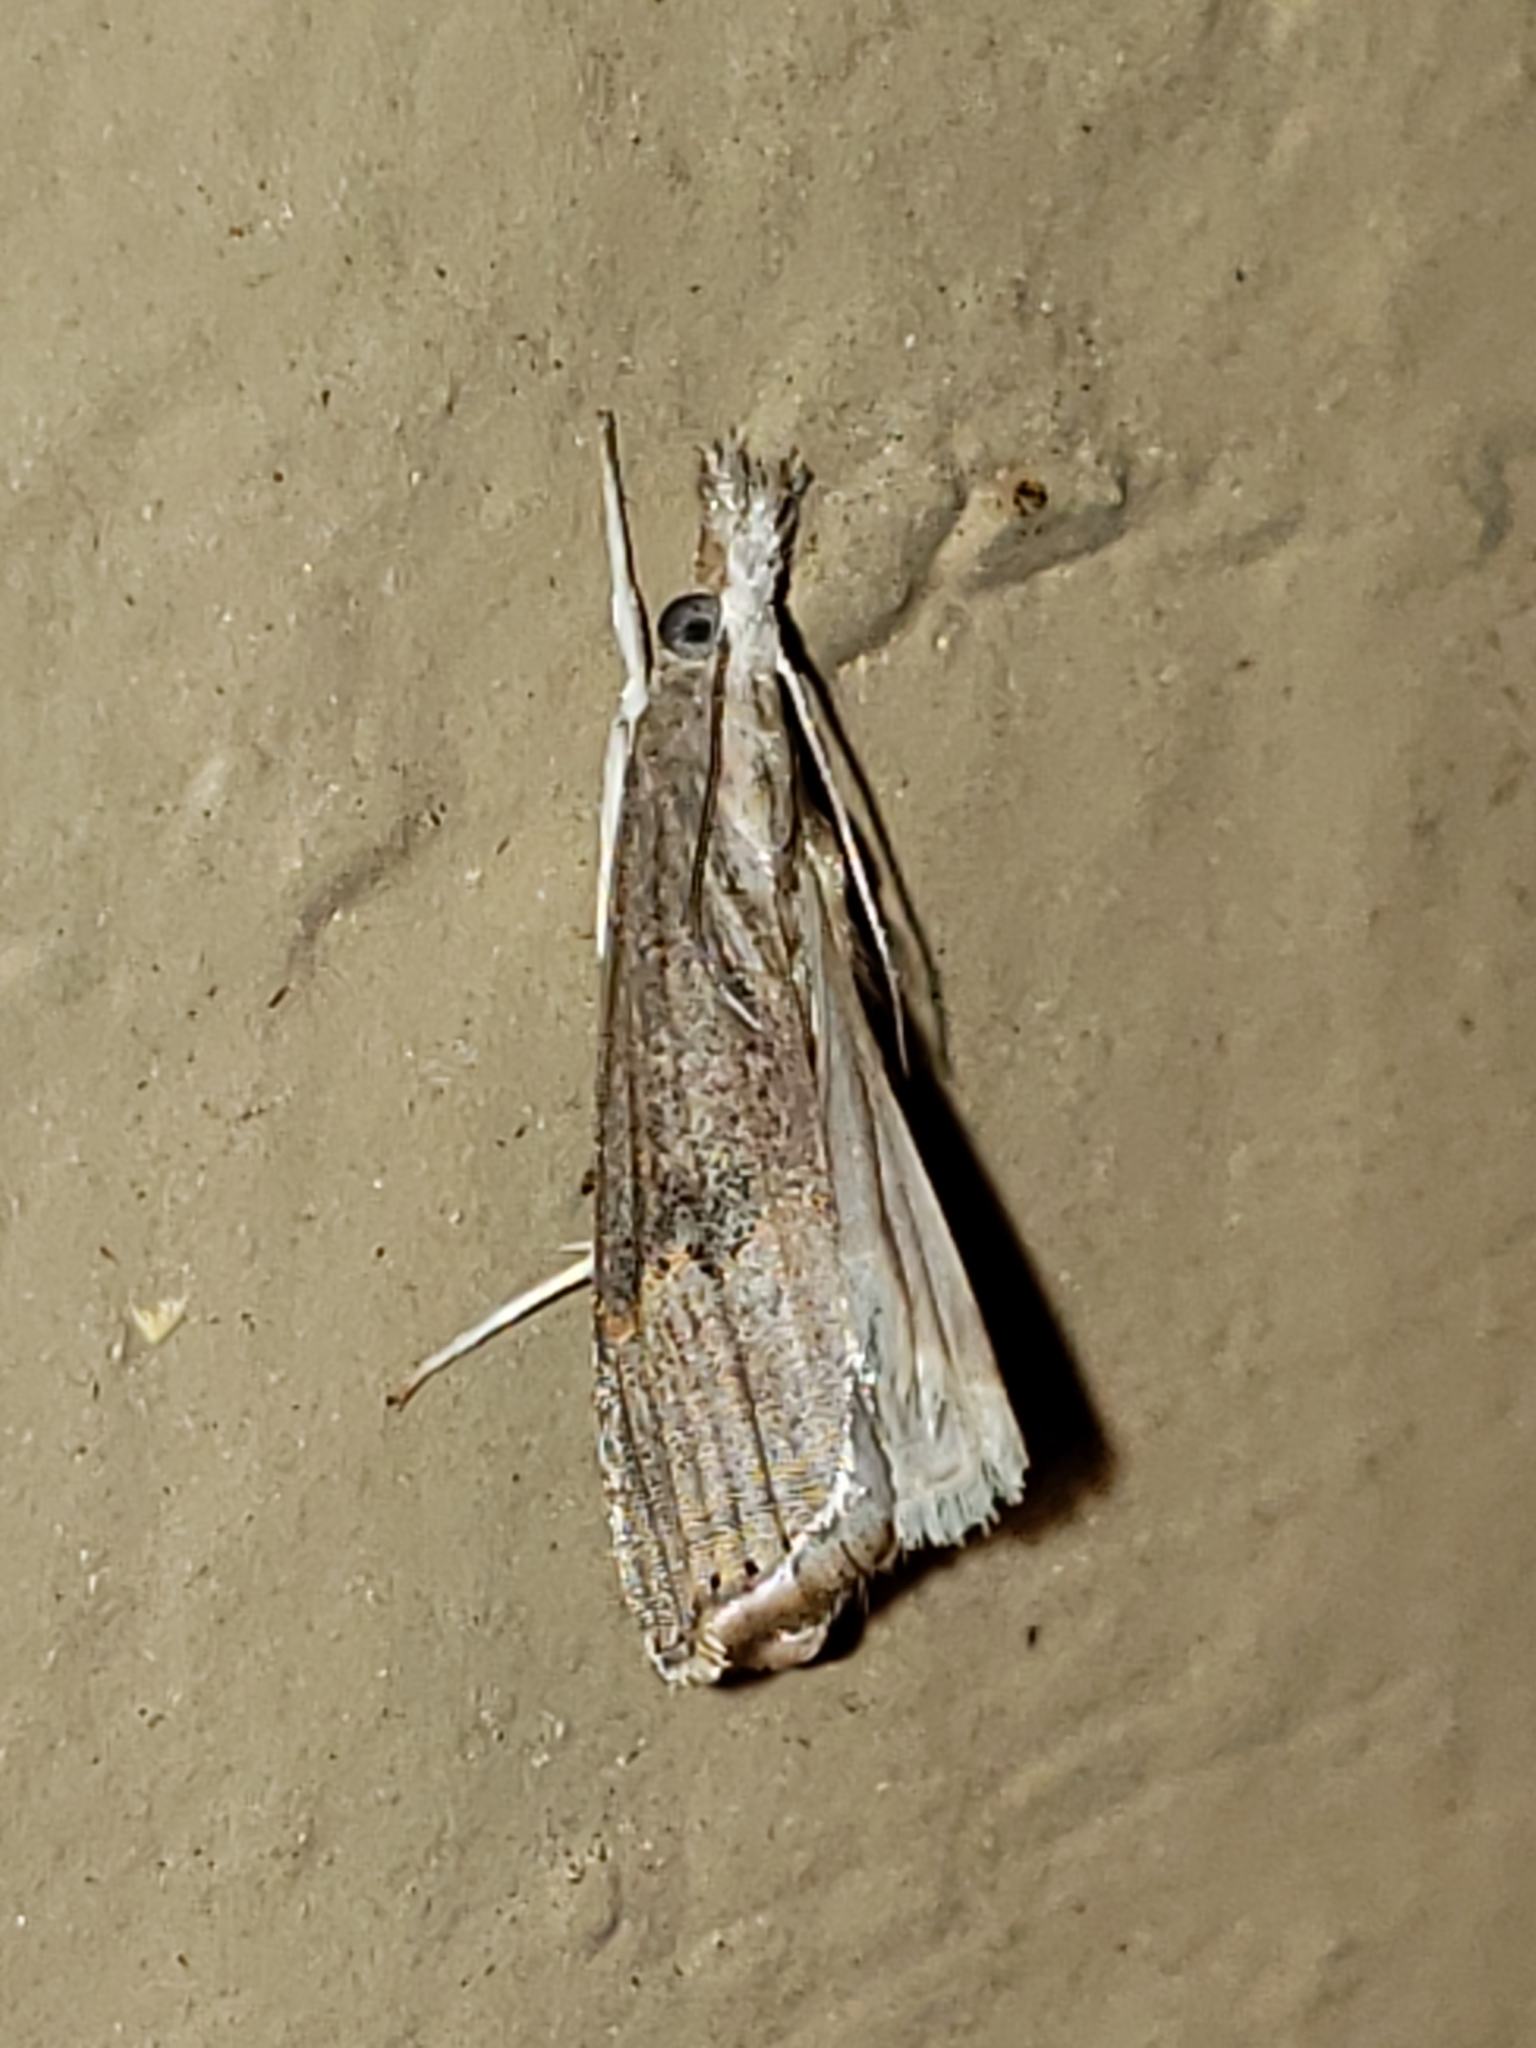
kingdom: Animalia
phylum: Arthropoda
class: Insecta
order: Lepidoptera
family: Crambidae
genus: Parapediasia
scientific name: Parapediasia teterellus
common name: Bluegrass webworm moth
